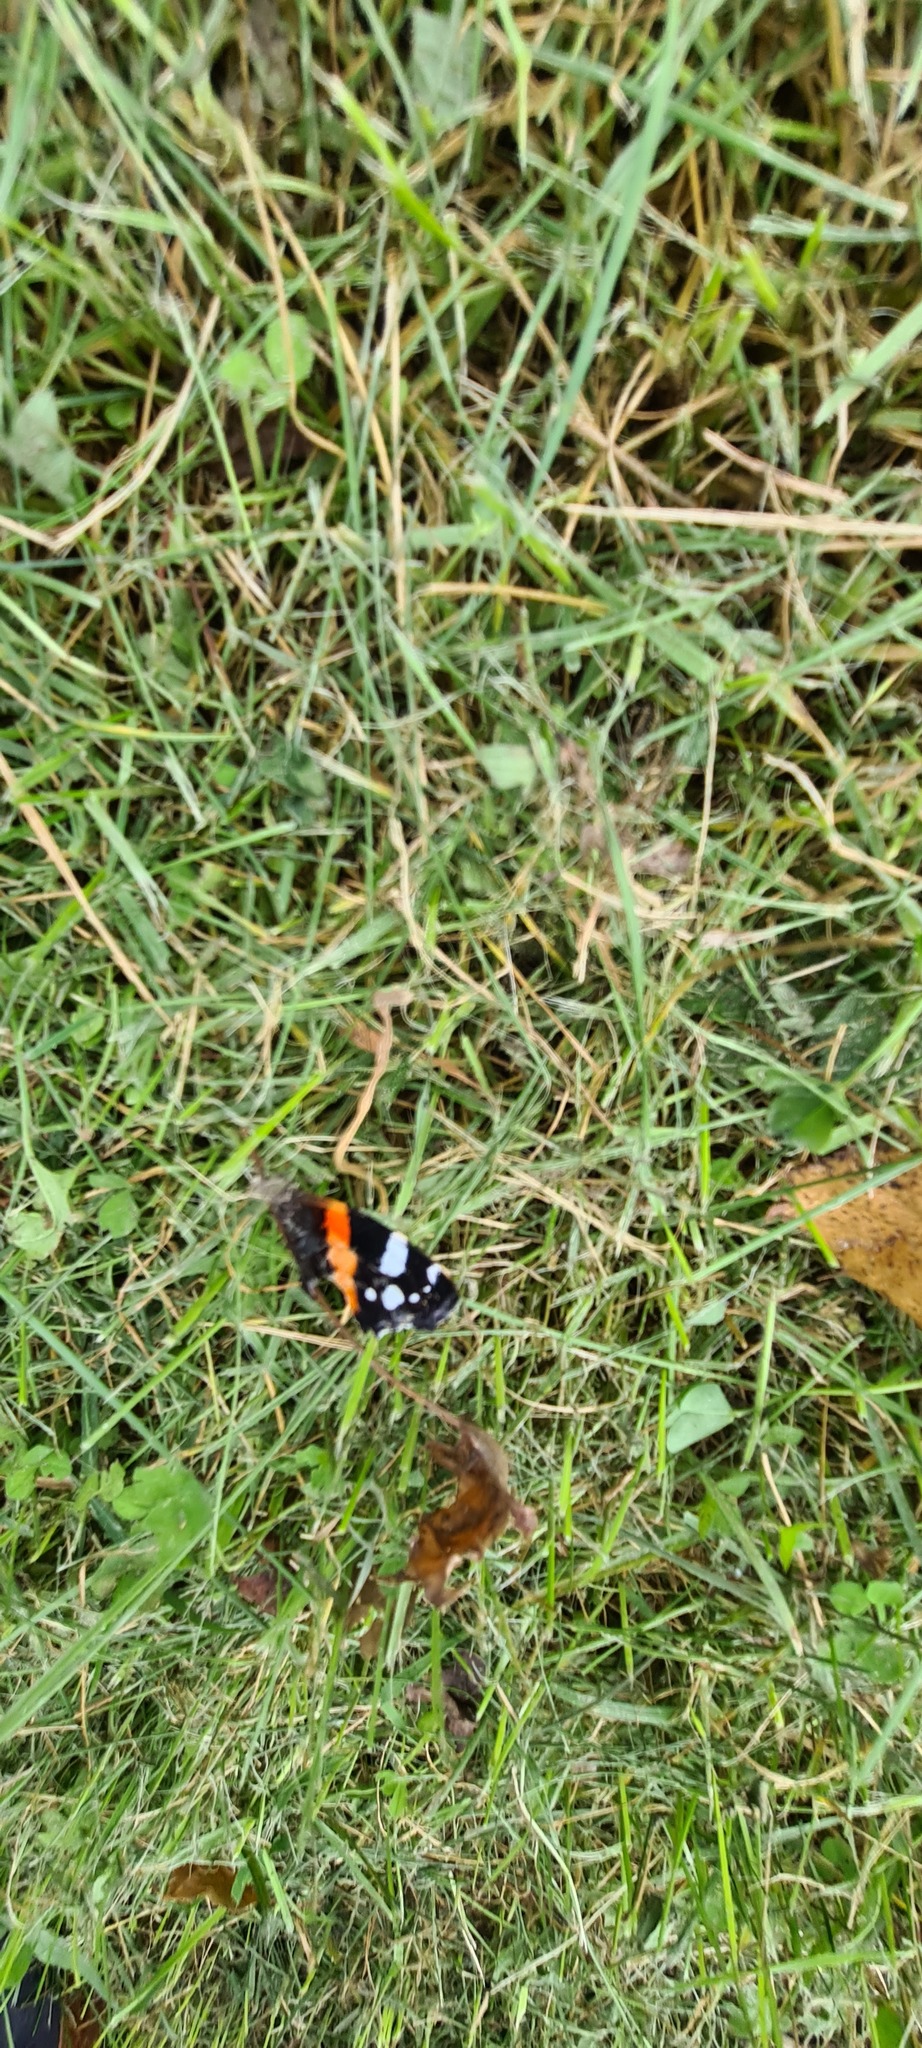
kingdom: Animalia
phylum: Arthropoda
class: Insecta
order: Lepidoptera
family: Nymphalidae
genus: Vanessa
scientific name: Vanessa atalanta
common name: Red admiral
